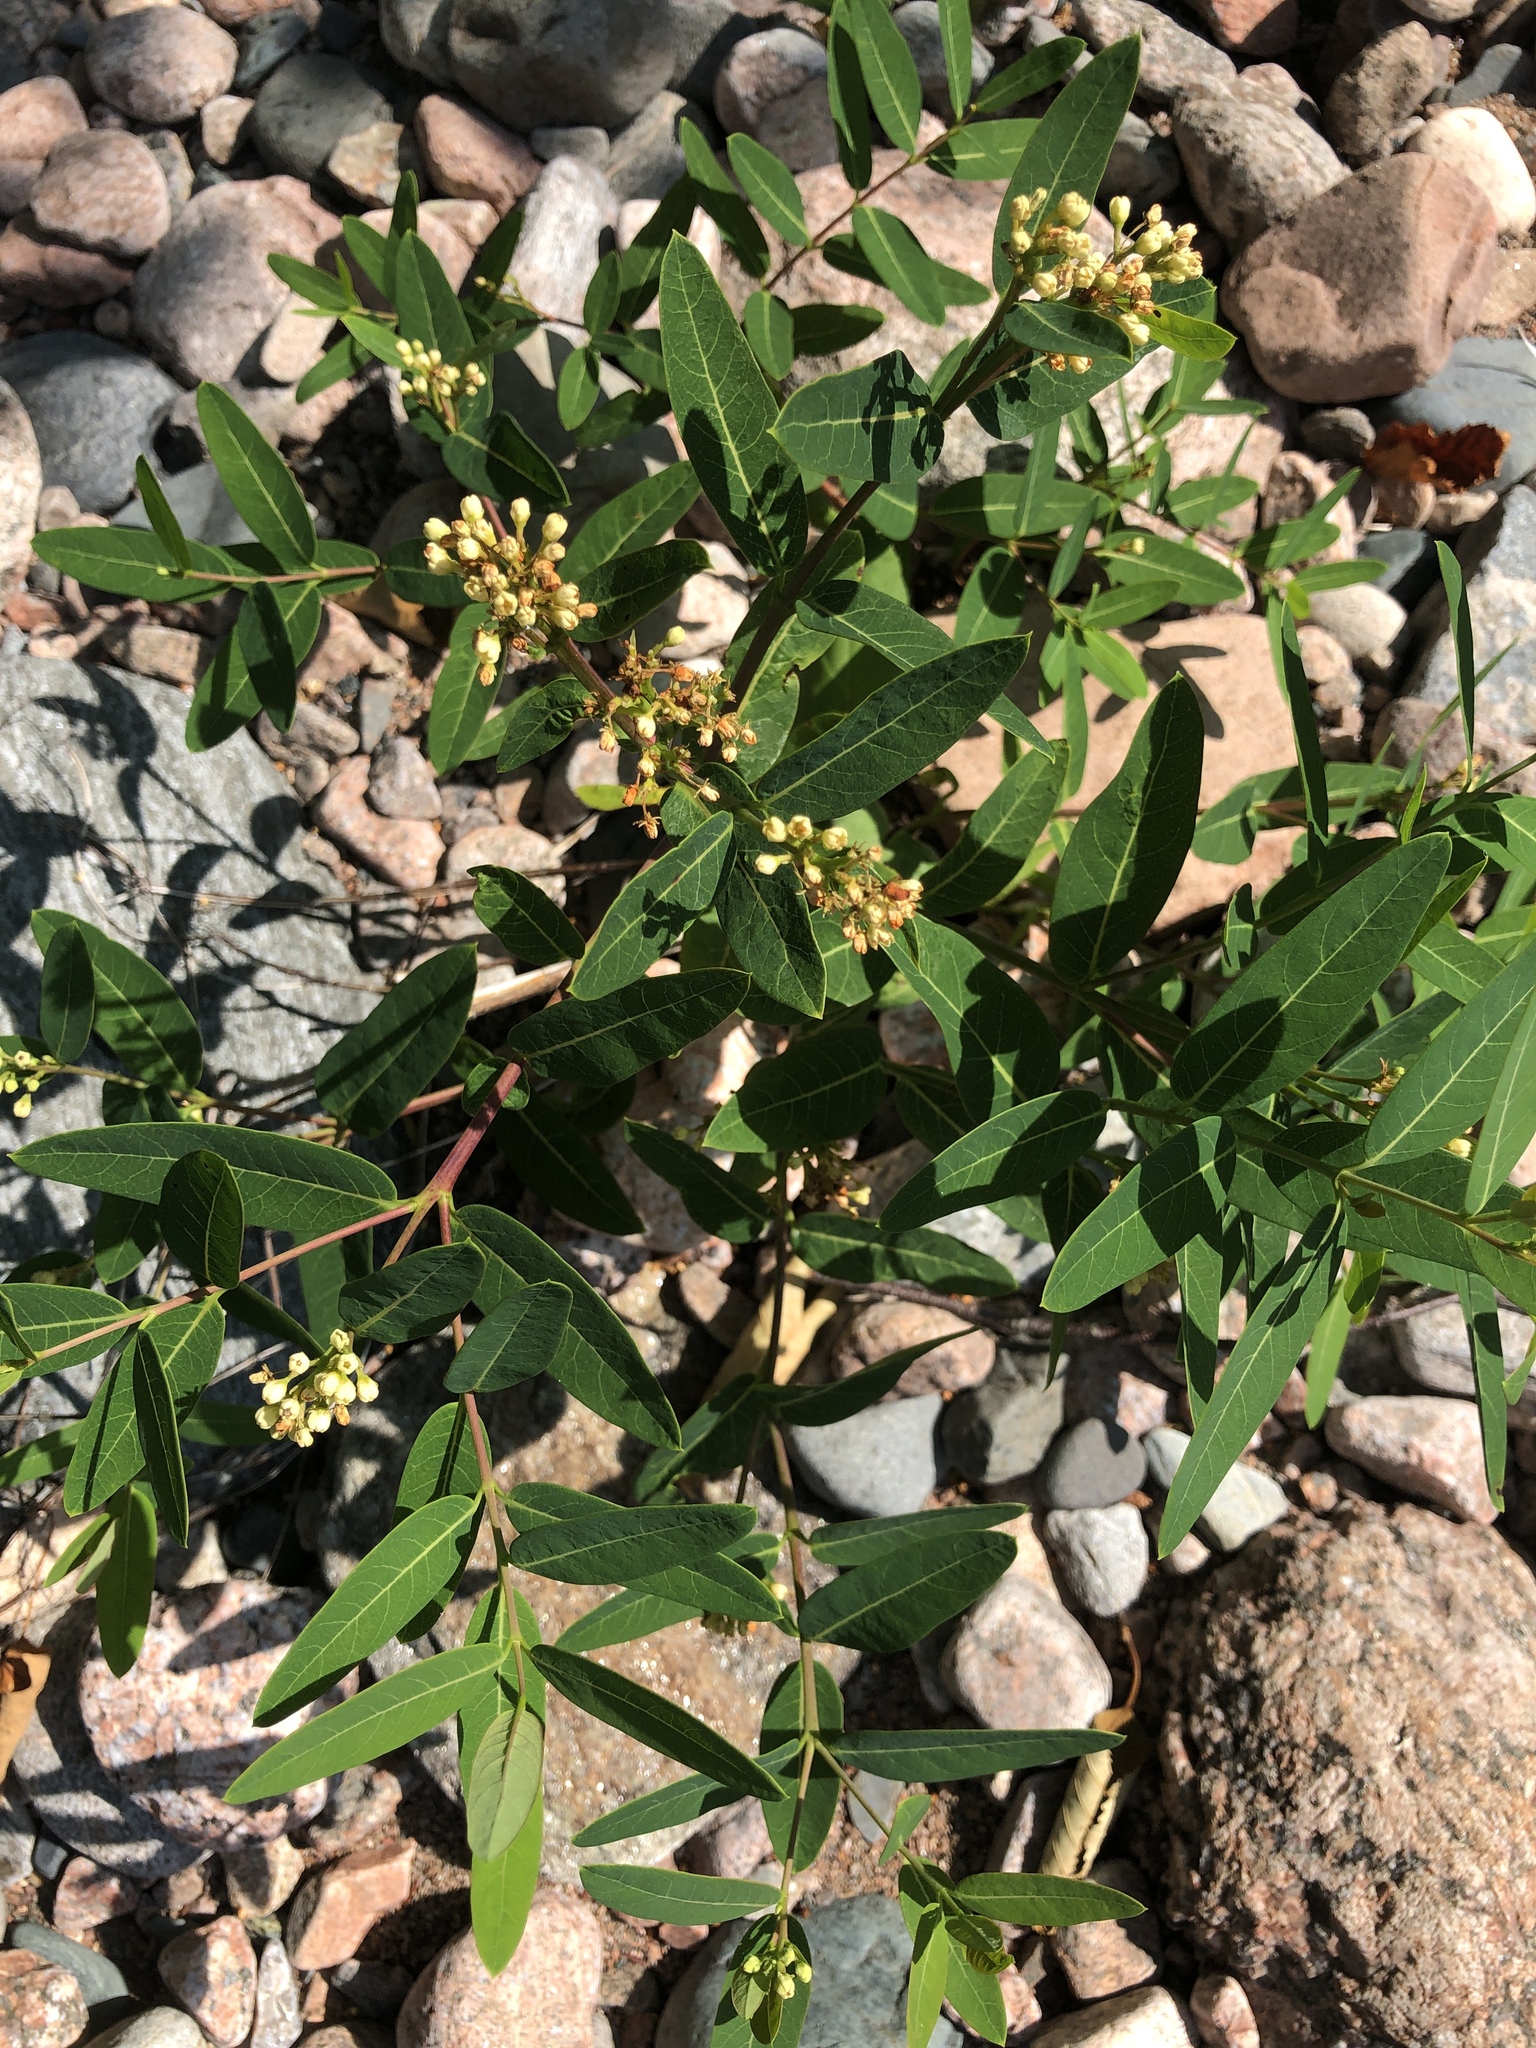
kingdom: Plantae
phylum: Tracheophyta
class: Magnoliopsida
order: Gentianales
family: Apocynaceae
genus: Apocynum
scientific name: Apocynum cannabinum
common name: Hemp dogbane
